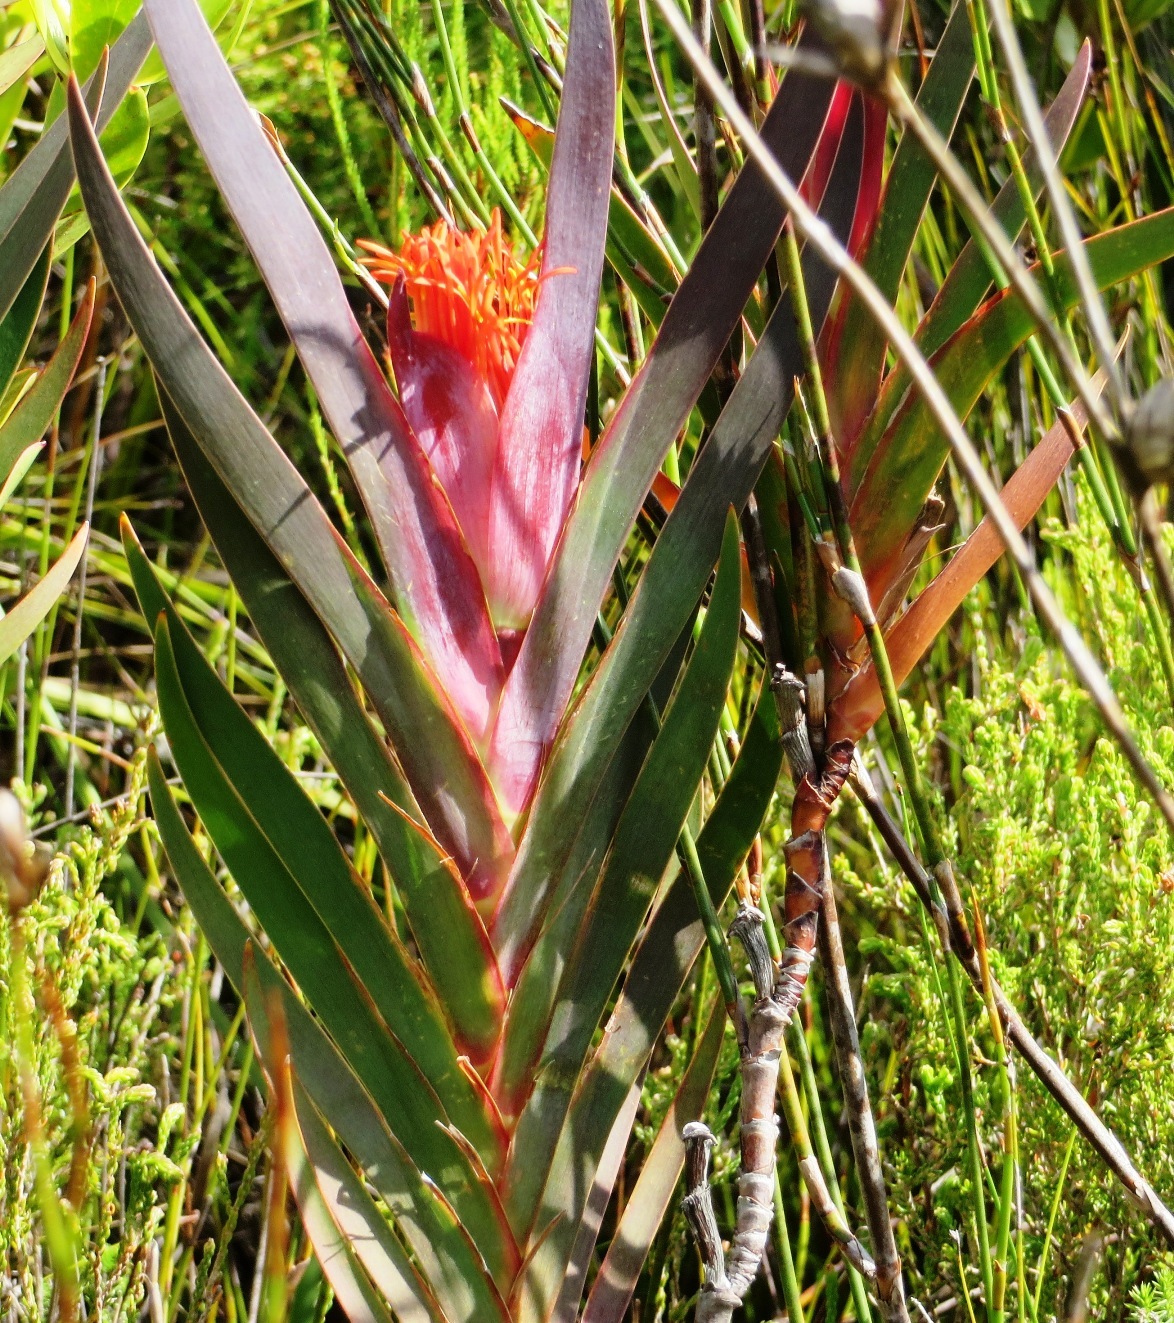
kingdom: Plantae
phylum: Tracheophyta
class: Liliopsida
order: Asparagales
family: Iridaceae
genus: Klattia
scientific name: Klattia stokoei
